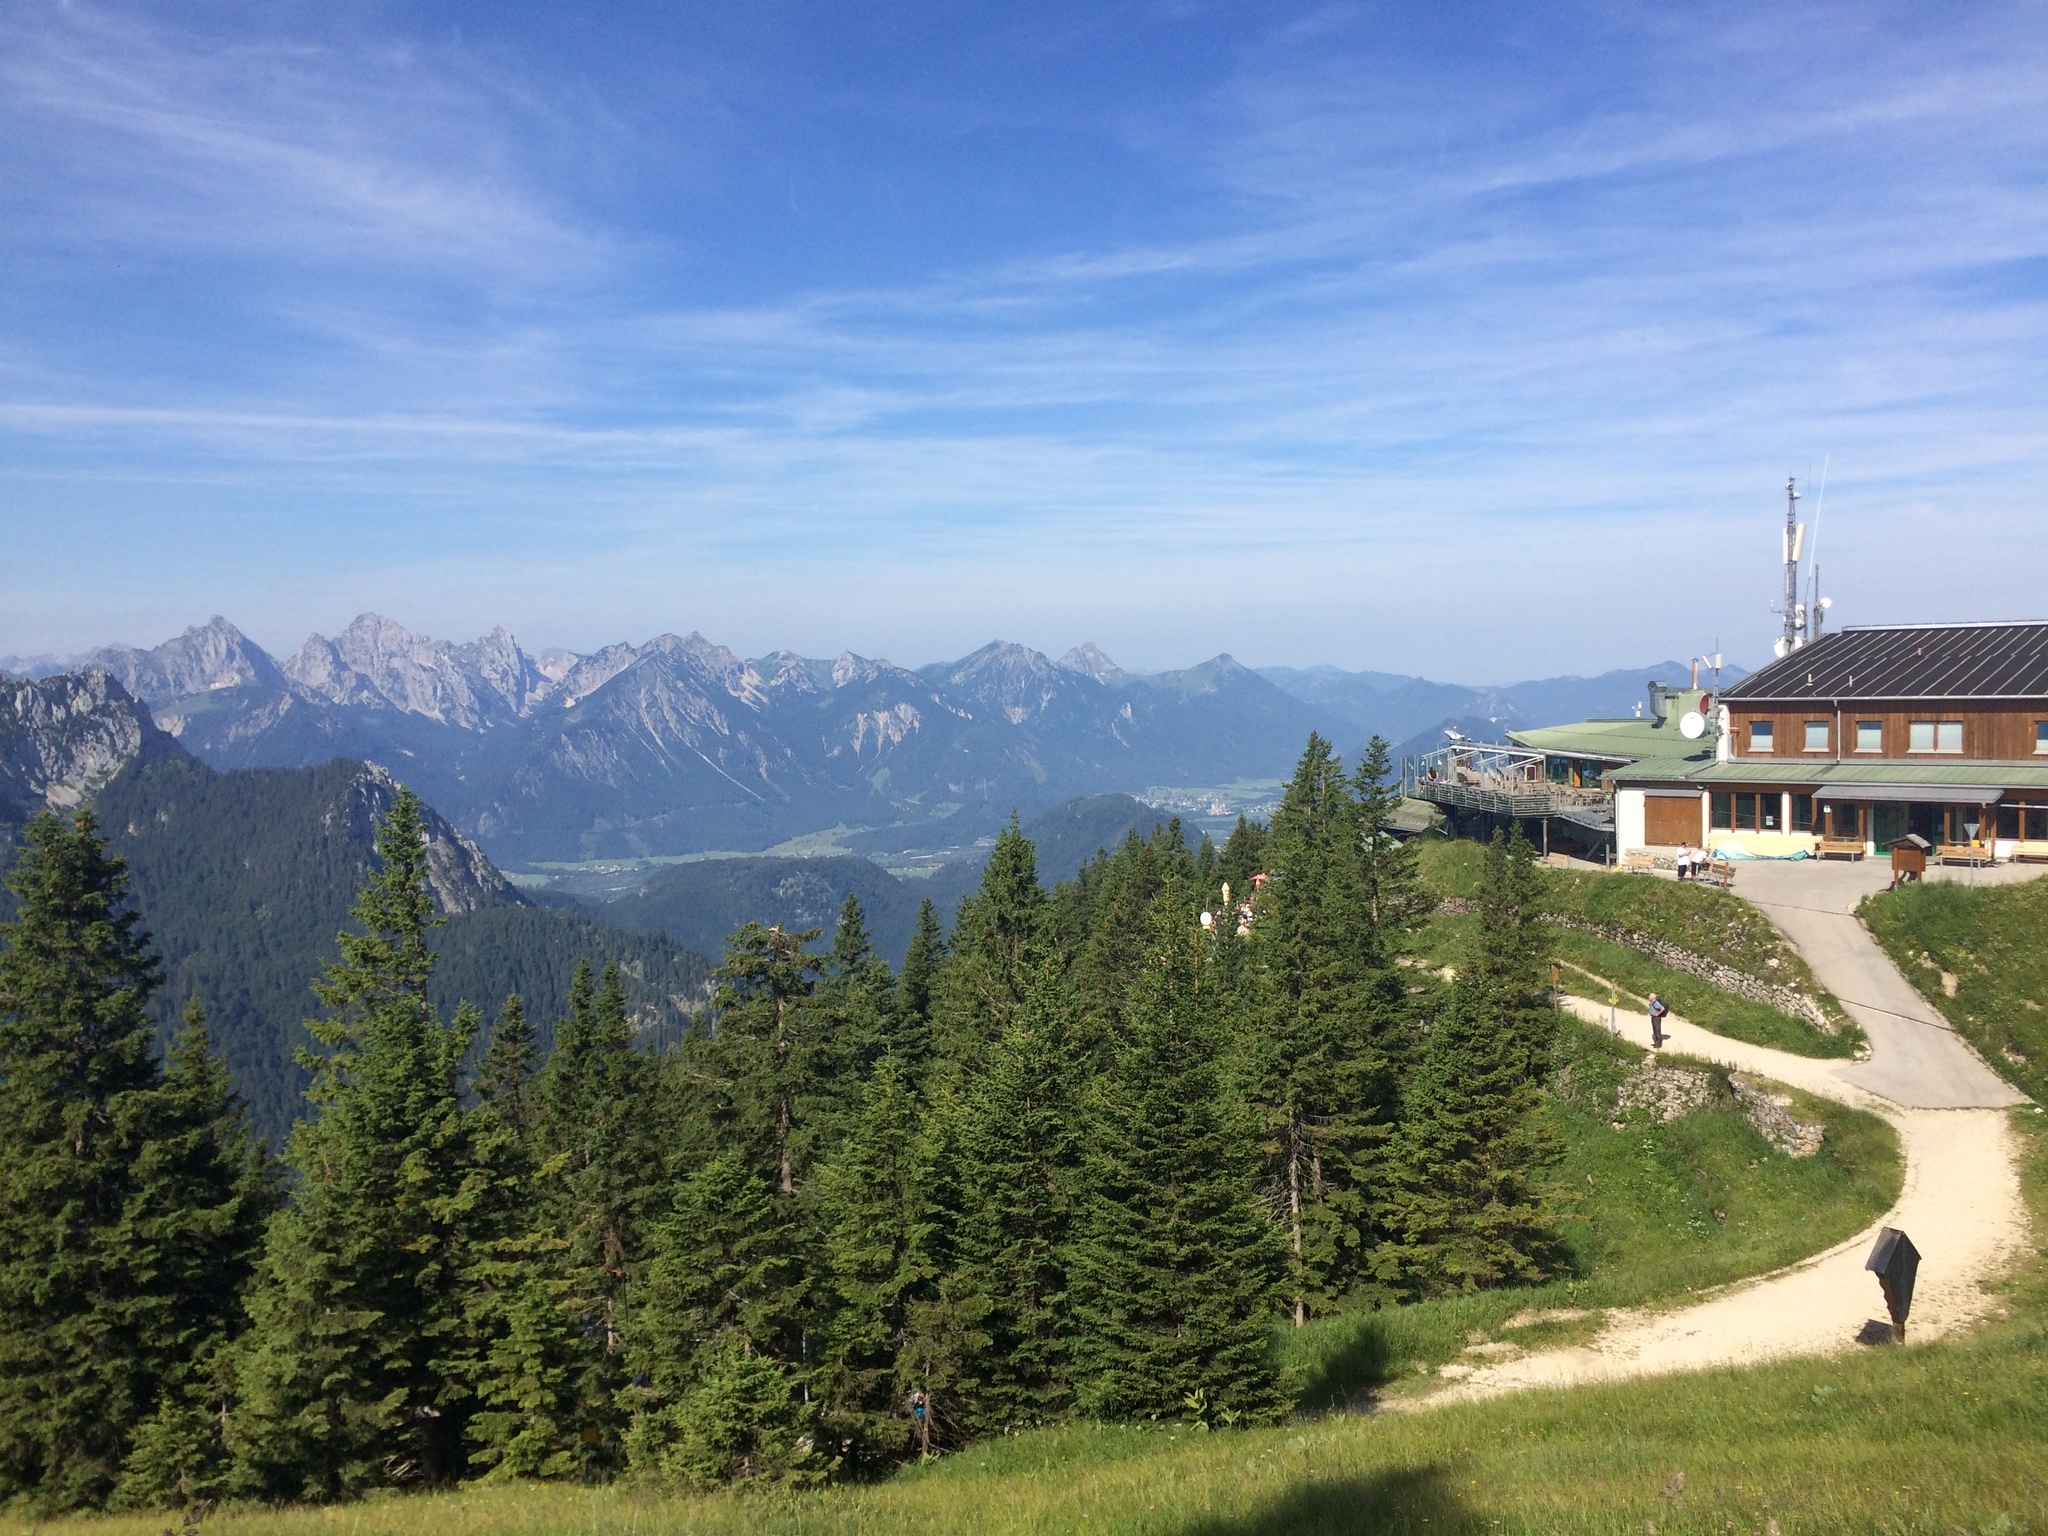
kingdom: Plantae
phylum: Tracheophyta
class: Pinopsida
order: Pinales
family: Pinaceae
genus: Picea
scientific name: Picea abies
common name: Norway spruce
